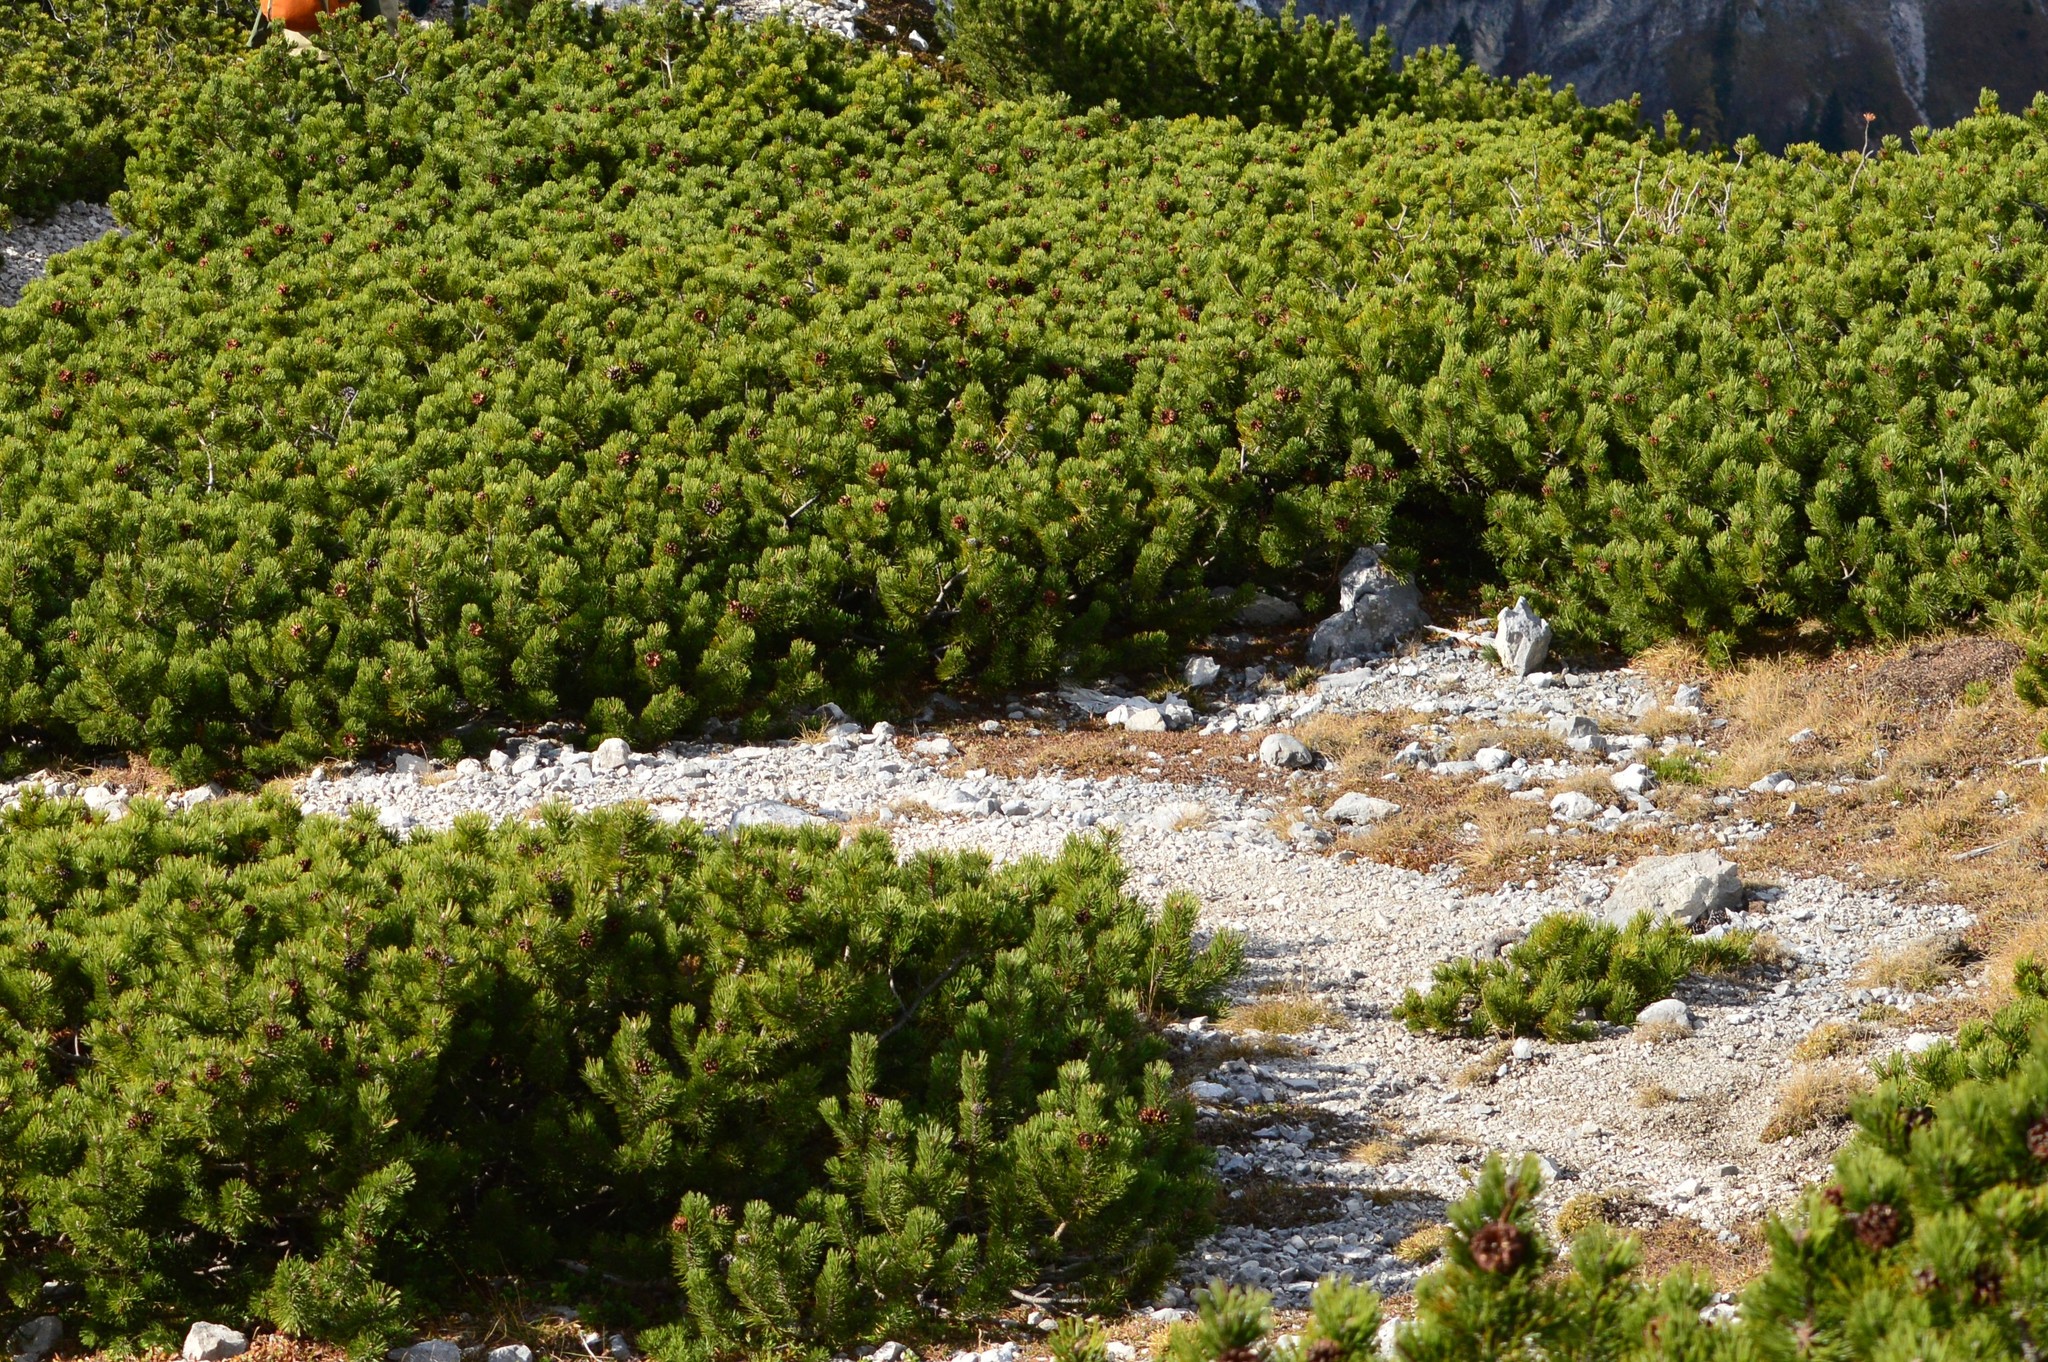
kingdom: Plantae
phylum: Tracheophyta
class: Pinopsida
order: Pinales
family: Pinaceae
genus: Pinus
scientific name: Pinus mugo
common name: Mugo pine
